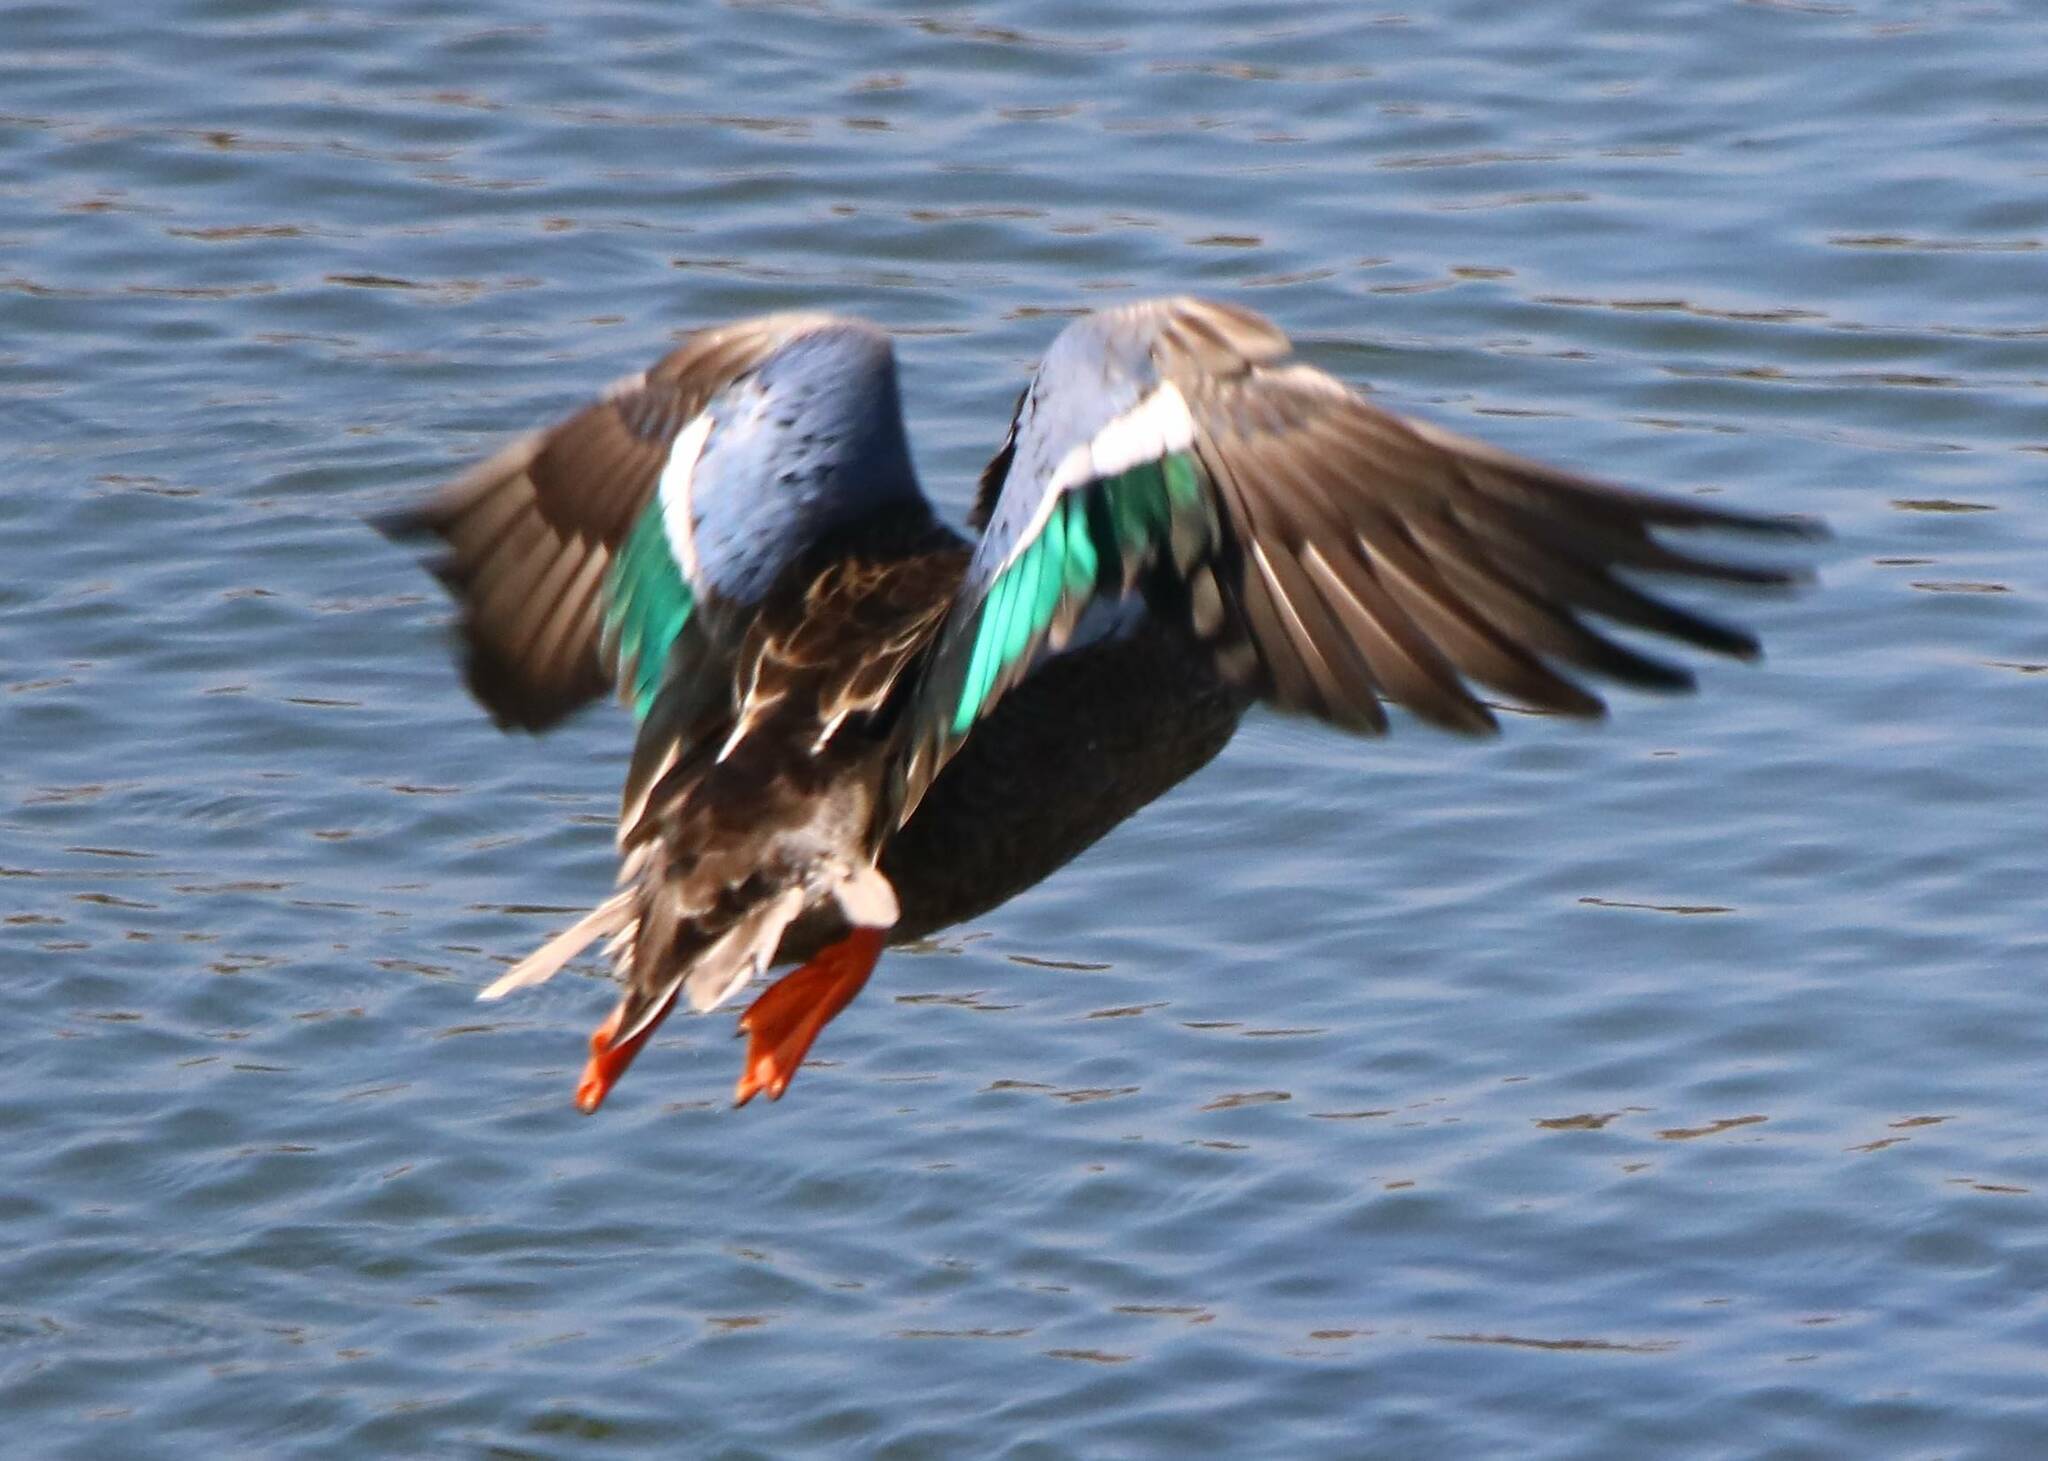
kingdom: Animalia
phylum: Chordata
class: Aves
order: Anseriformes
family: Anatidae
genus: Spatula
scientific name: Spatula clypeata
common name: Northern shoveler
